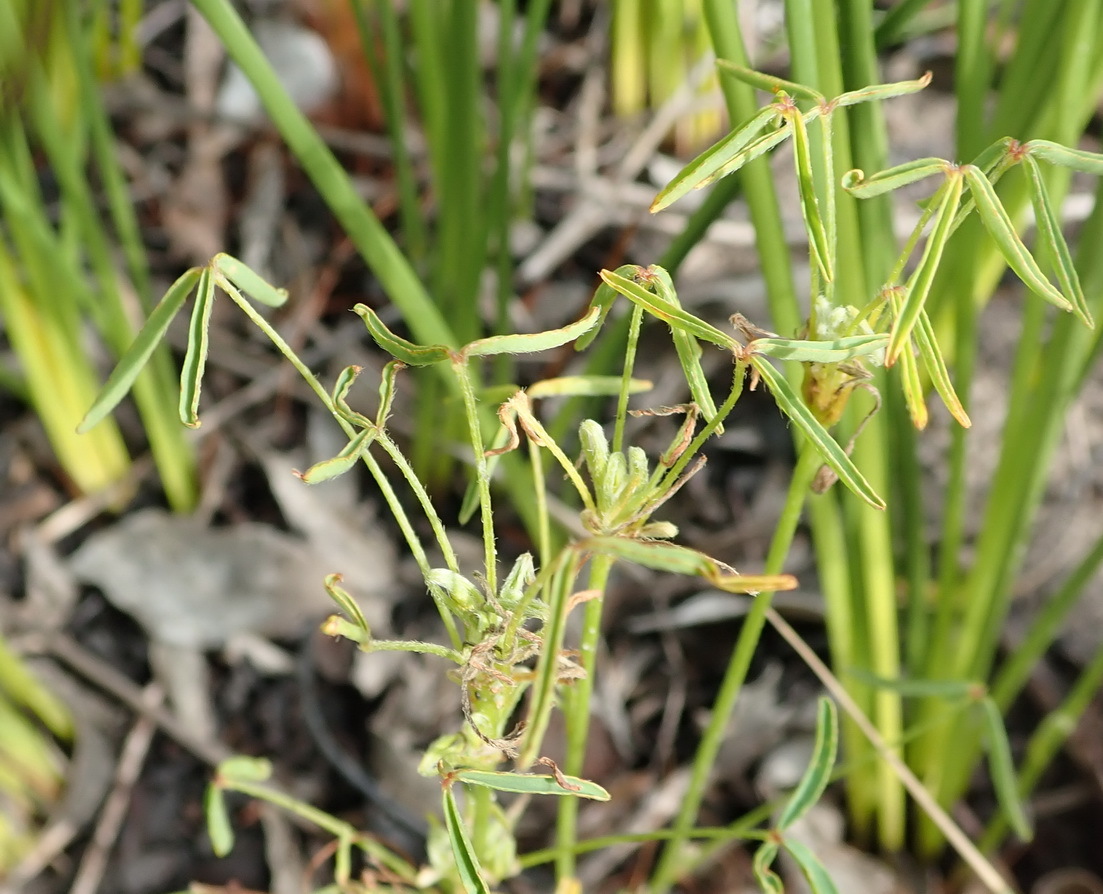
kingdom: Plantae
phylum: Tracheophyta
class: Magnoliopsida
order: Oxalidales
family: Oxalidaceae
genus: Oxalis
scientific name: Oxalis pendulifolia
